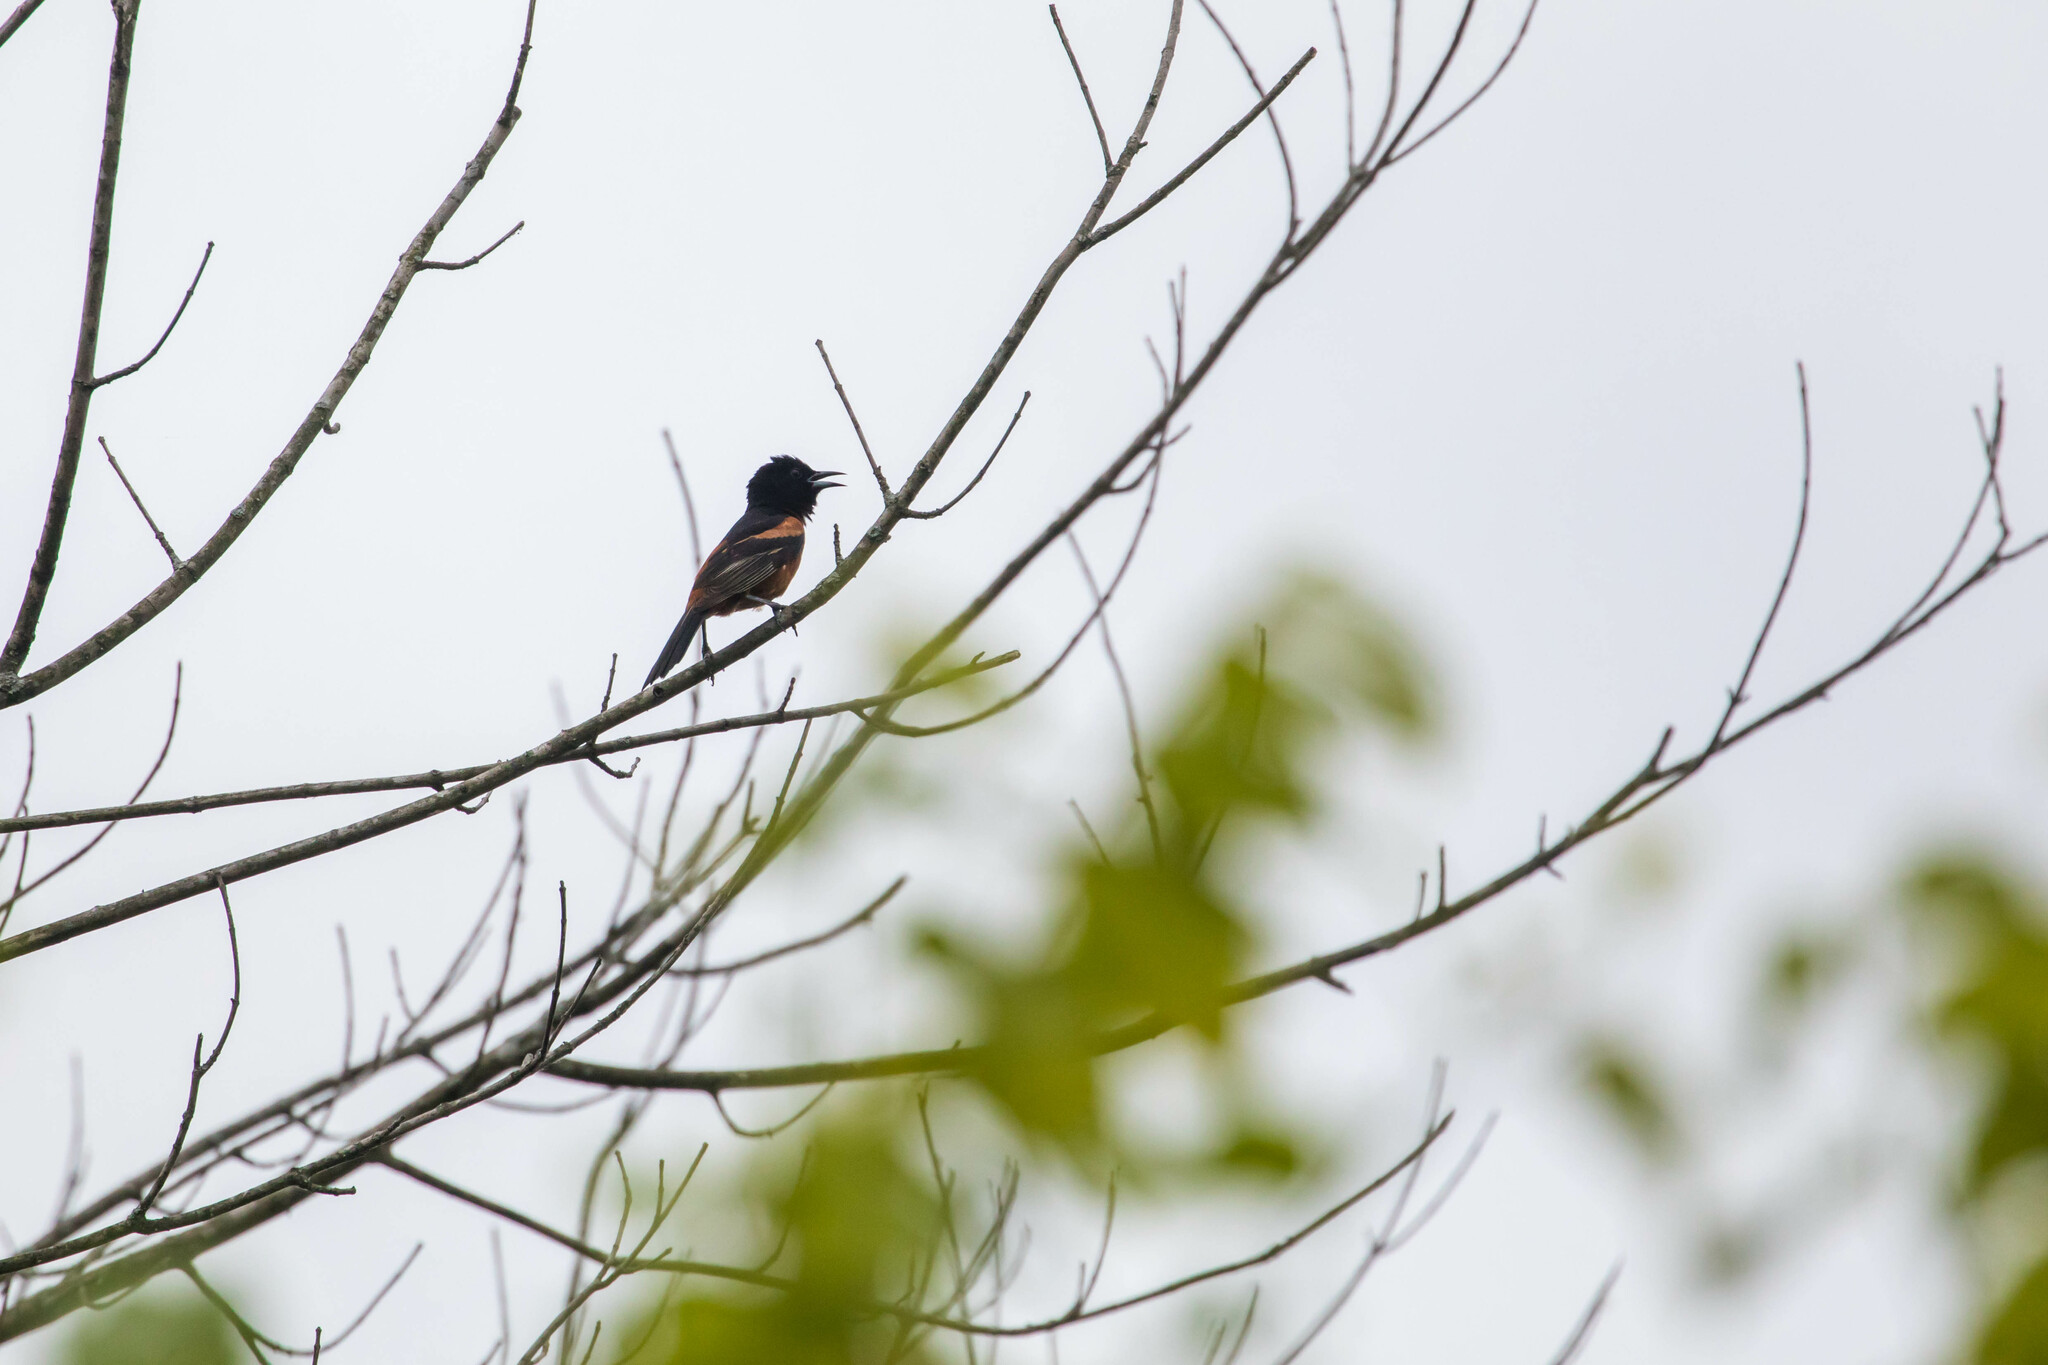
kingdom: Animalia
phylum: Chordata
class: Aves
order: Passeriformes
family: Icteridae
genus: Icterus
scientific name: Icterus spurius
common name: Orchard oriole
